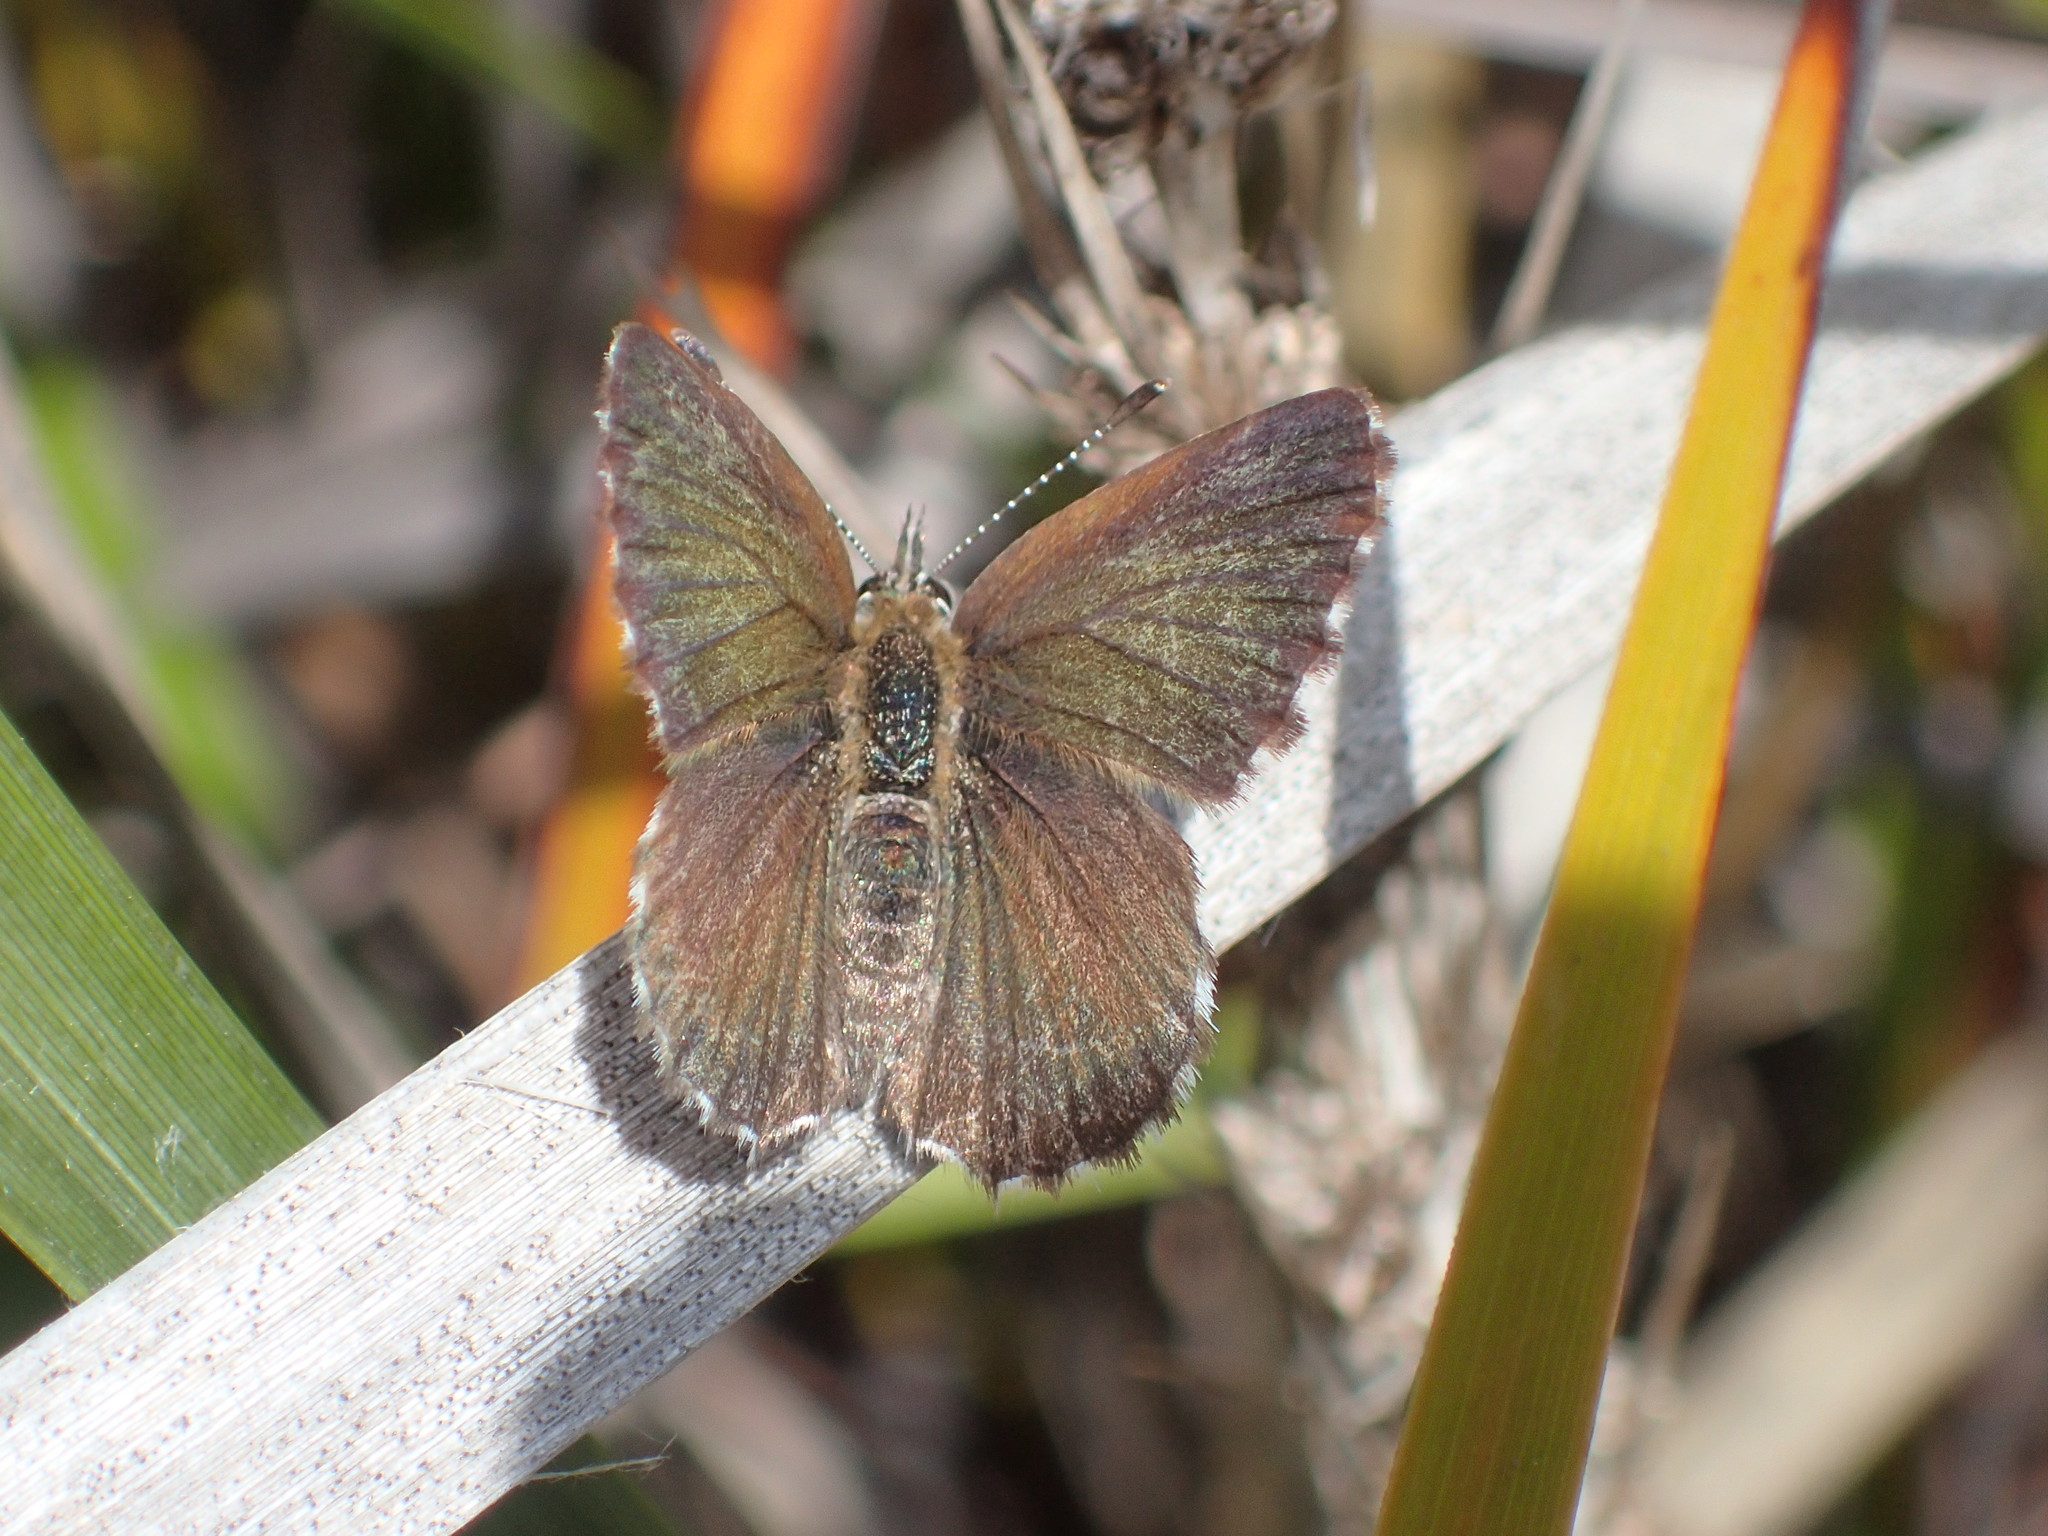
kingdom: Animalia
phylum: Arthropoda
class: Insecta
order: Lepidoptera
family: Lycaenidae
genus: Neolucia
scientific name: Neolucia agricola
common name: Fringed blue
